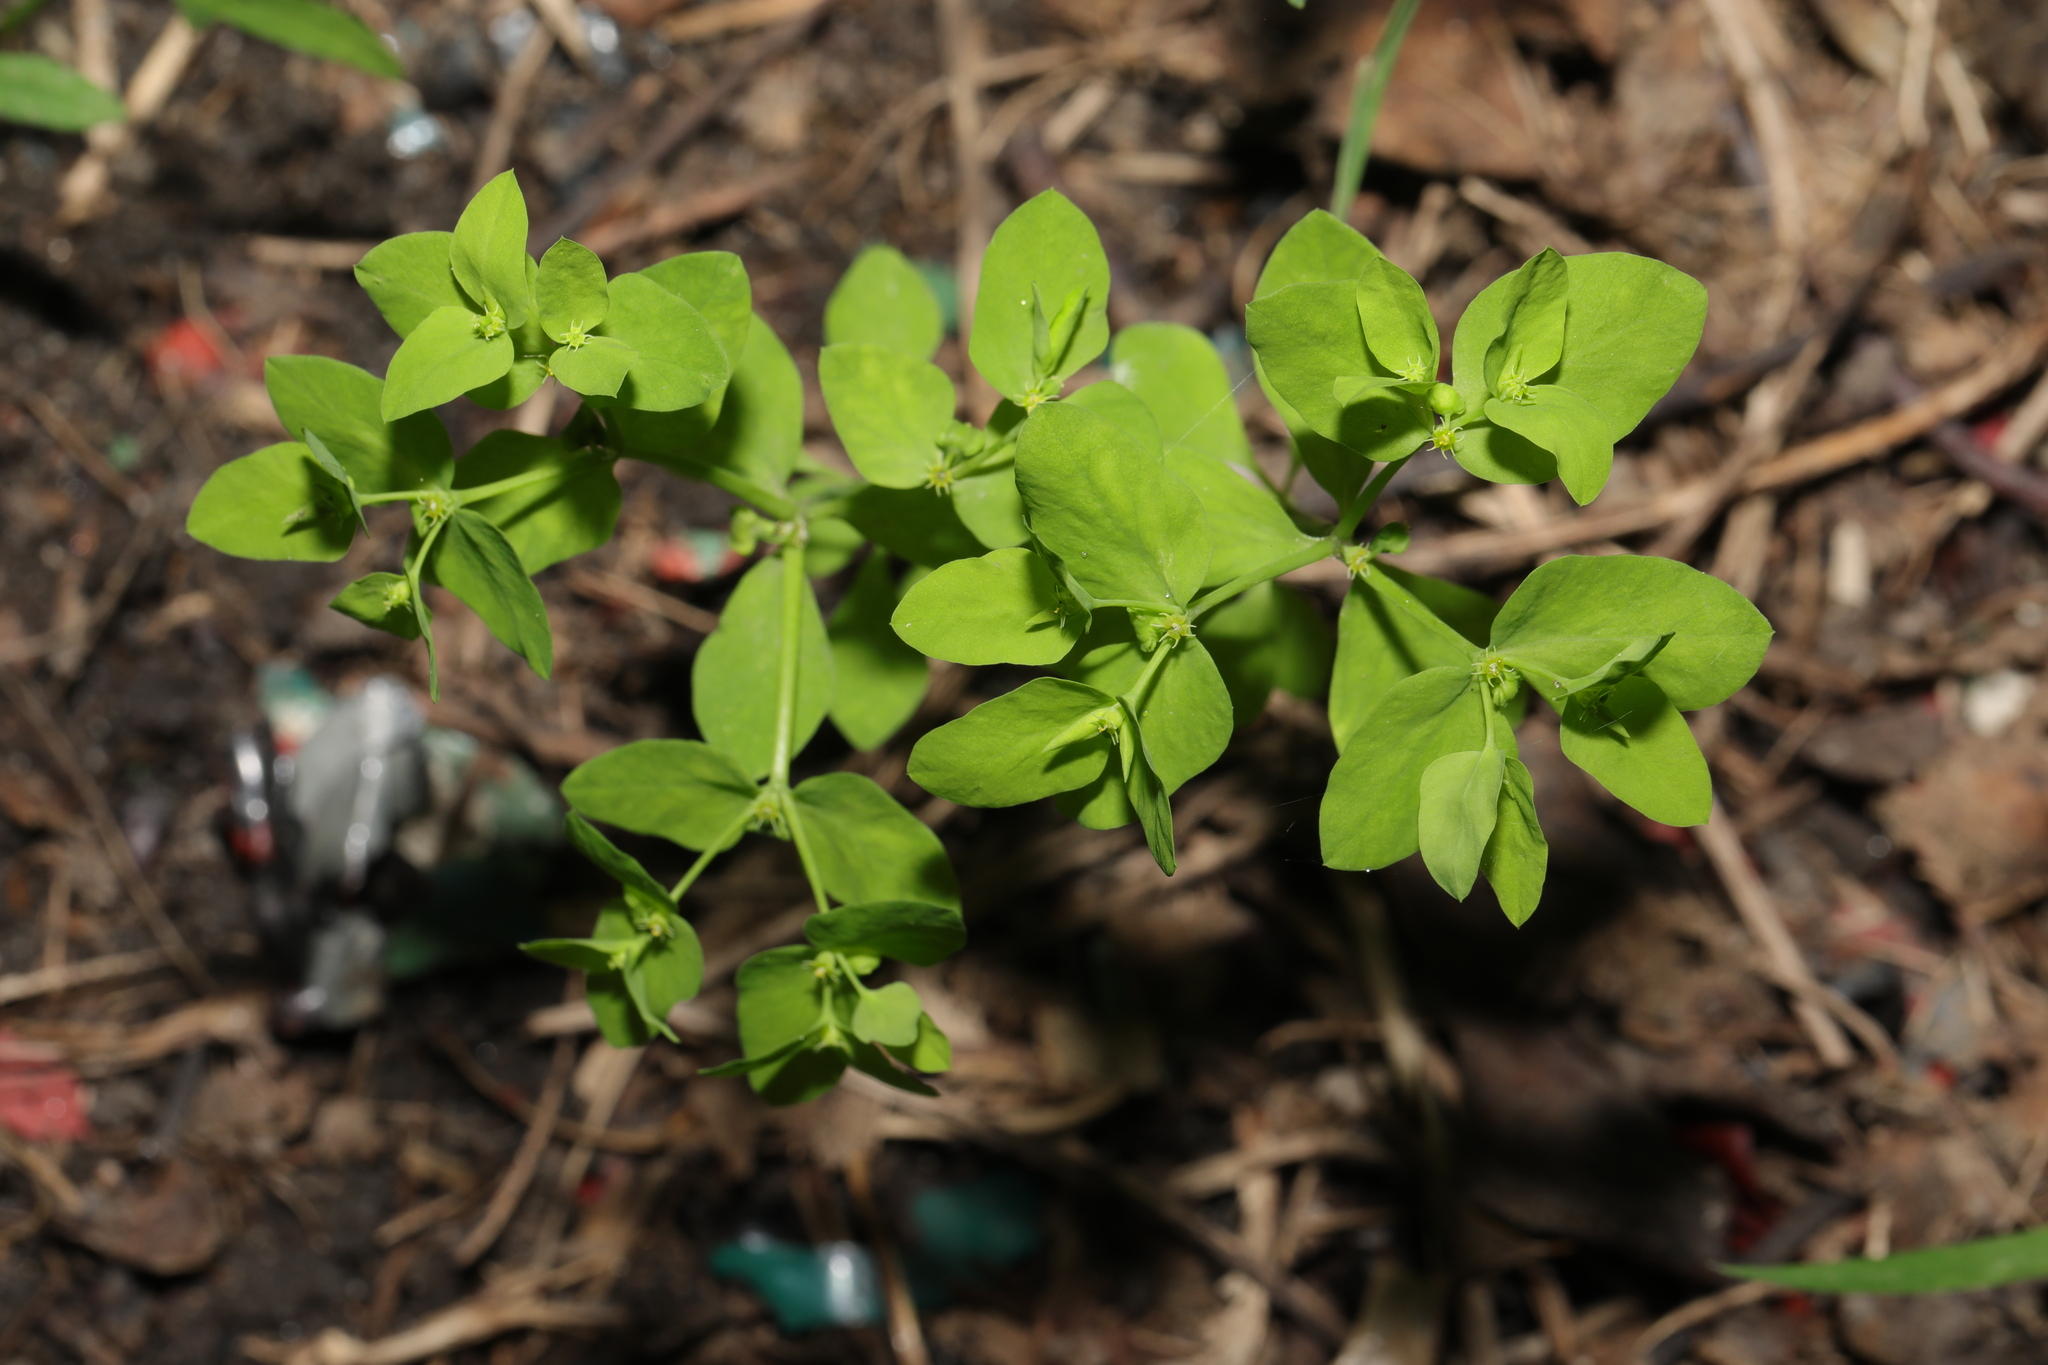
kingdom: Plantae
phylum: Tracheophyta
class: Magnoliopsida
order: Malpighiales
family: Euphorbiaceae
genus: Euphorbia
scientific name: Euphorbia peplus
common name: Petty spurge
